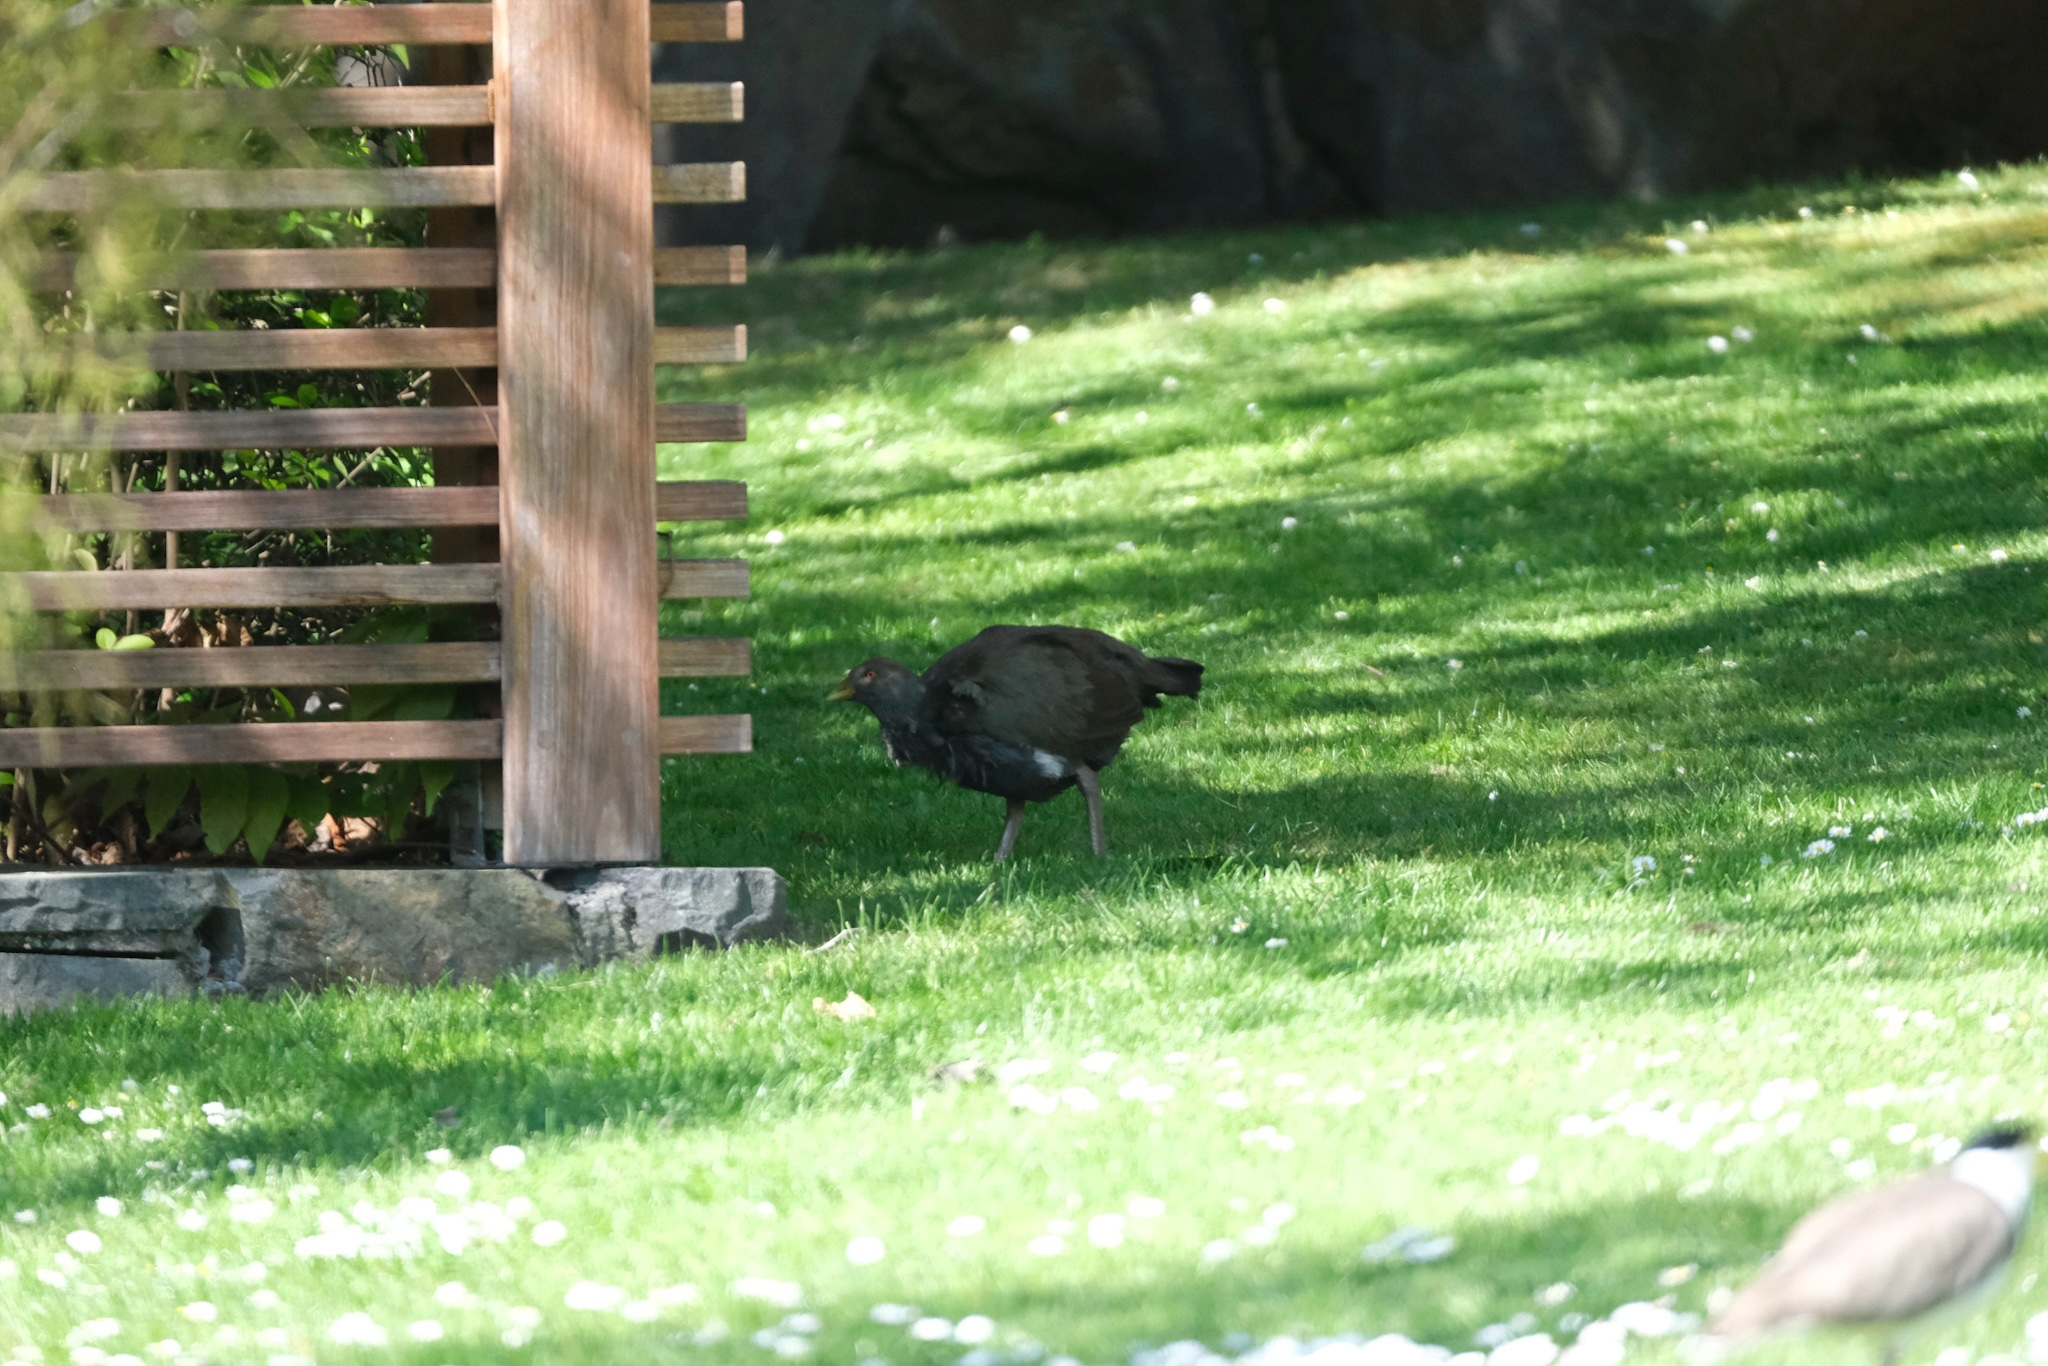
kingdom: Animalia
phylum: Chordata
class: Aves
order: Gruiformes
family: Rallidae
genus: Gallinula
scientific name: Gallinula mortierii
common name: Tasmanian nativehen
